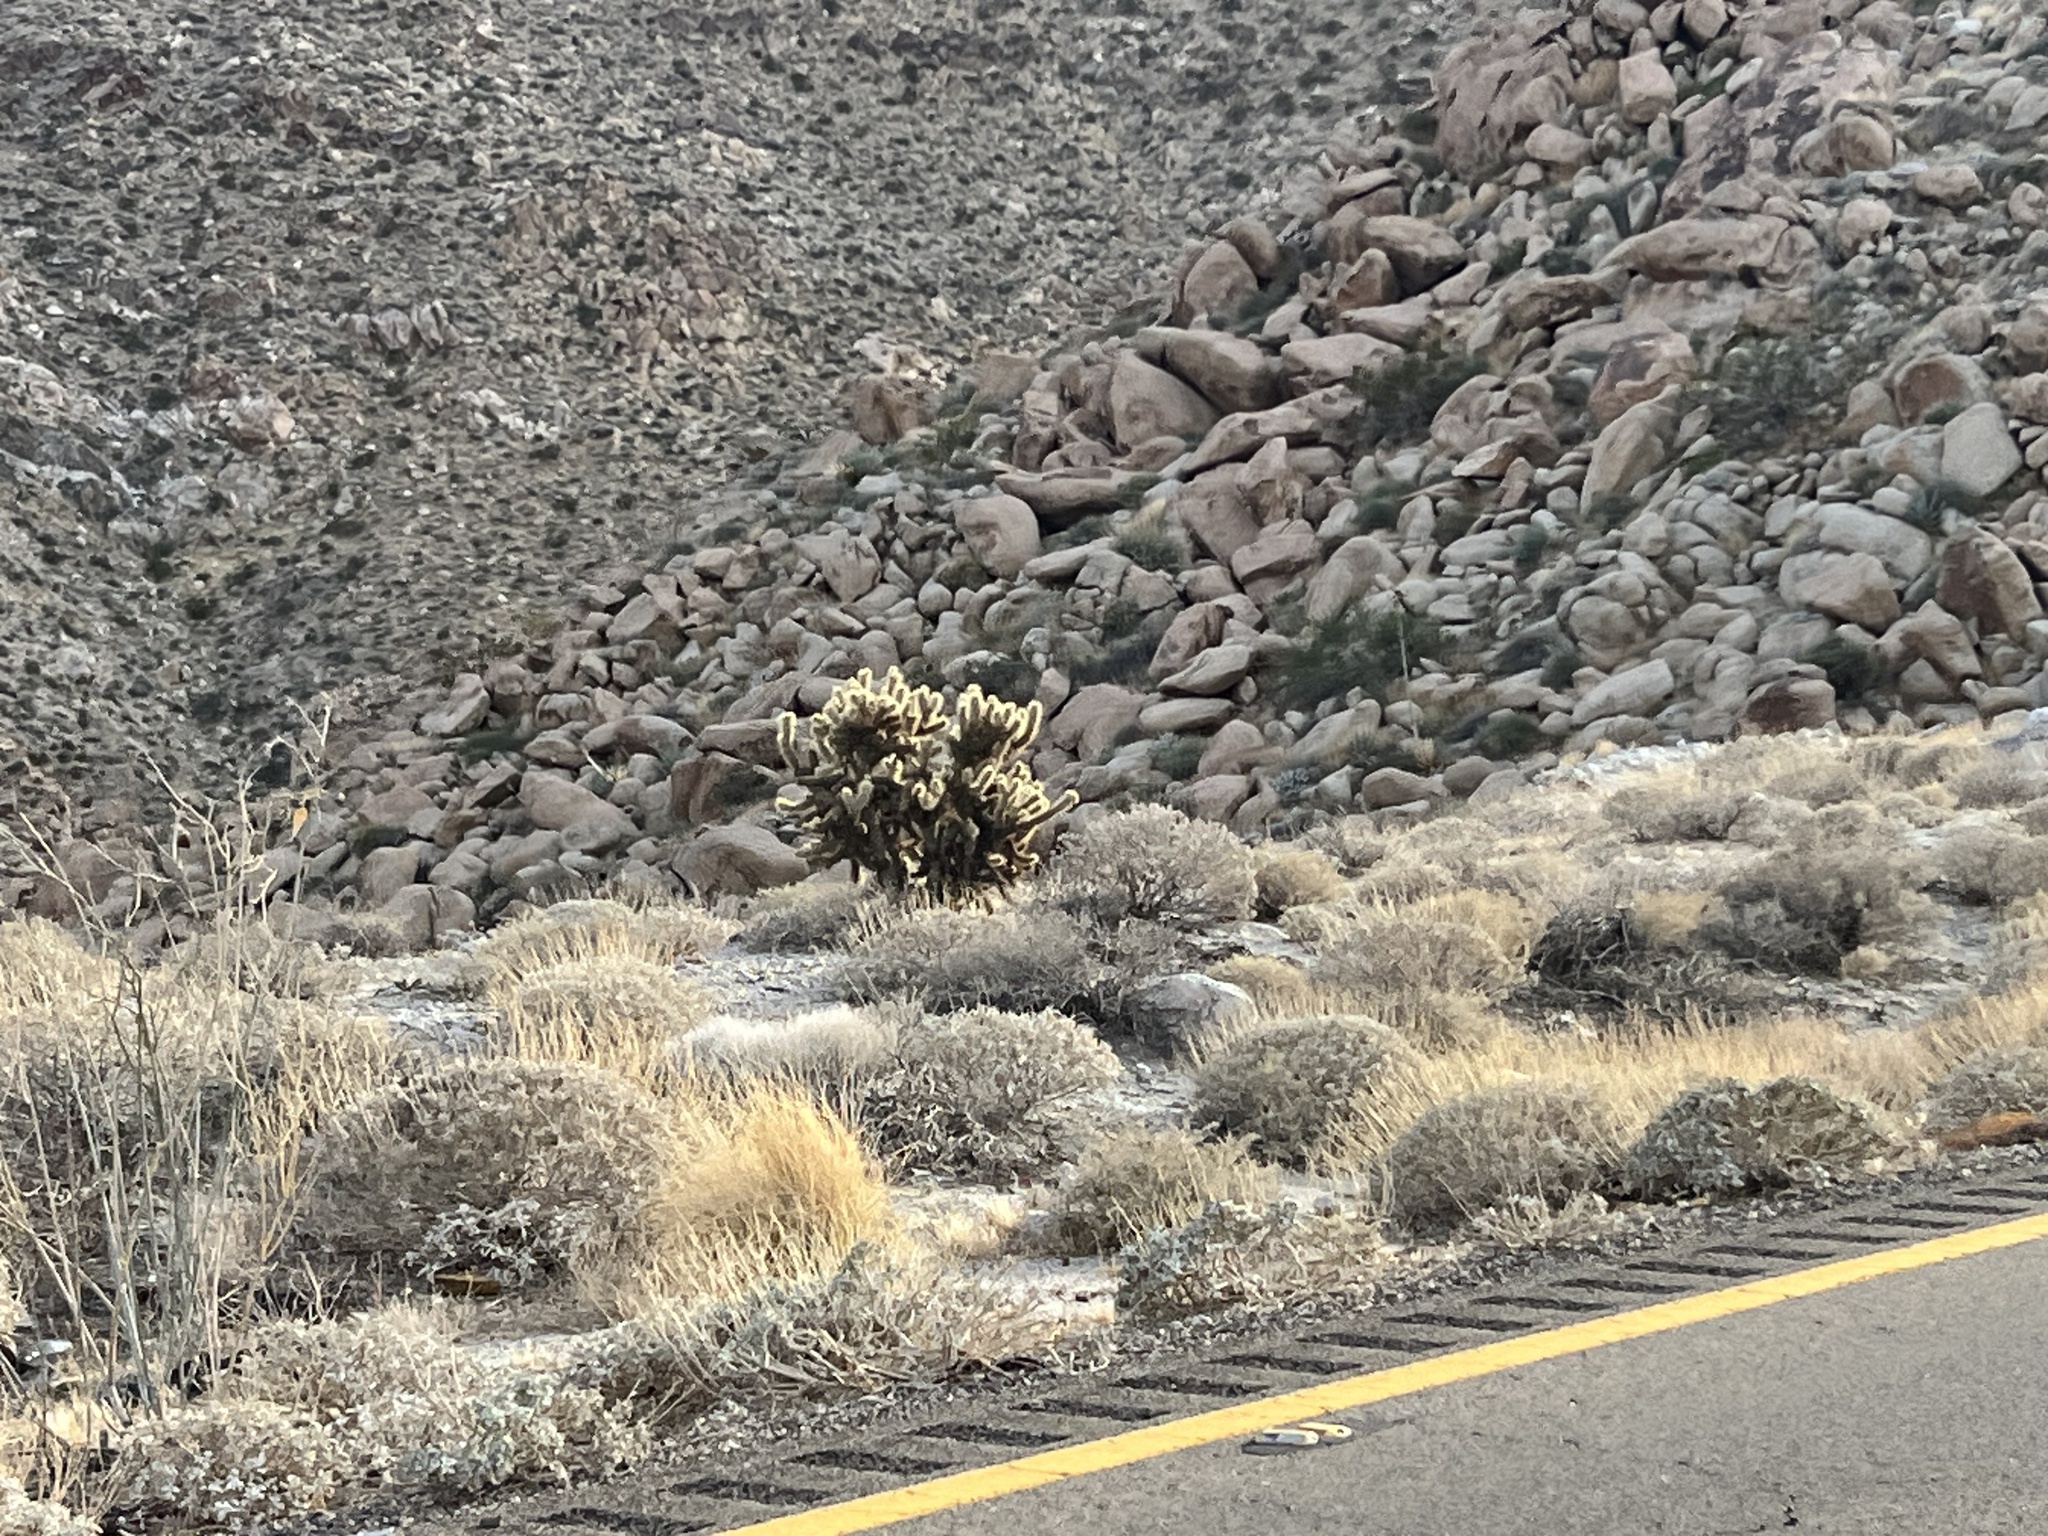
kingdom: Plantae
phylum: Tracheophyta
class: Magnoliopsida
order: Caryophyllales
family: Cactaceae
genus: Cylindropuntia
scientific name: Cylindropuntia ganderi
